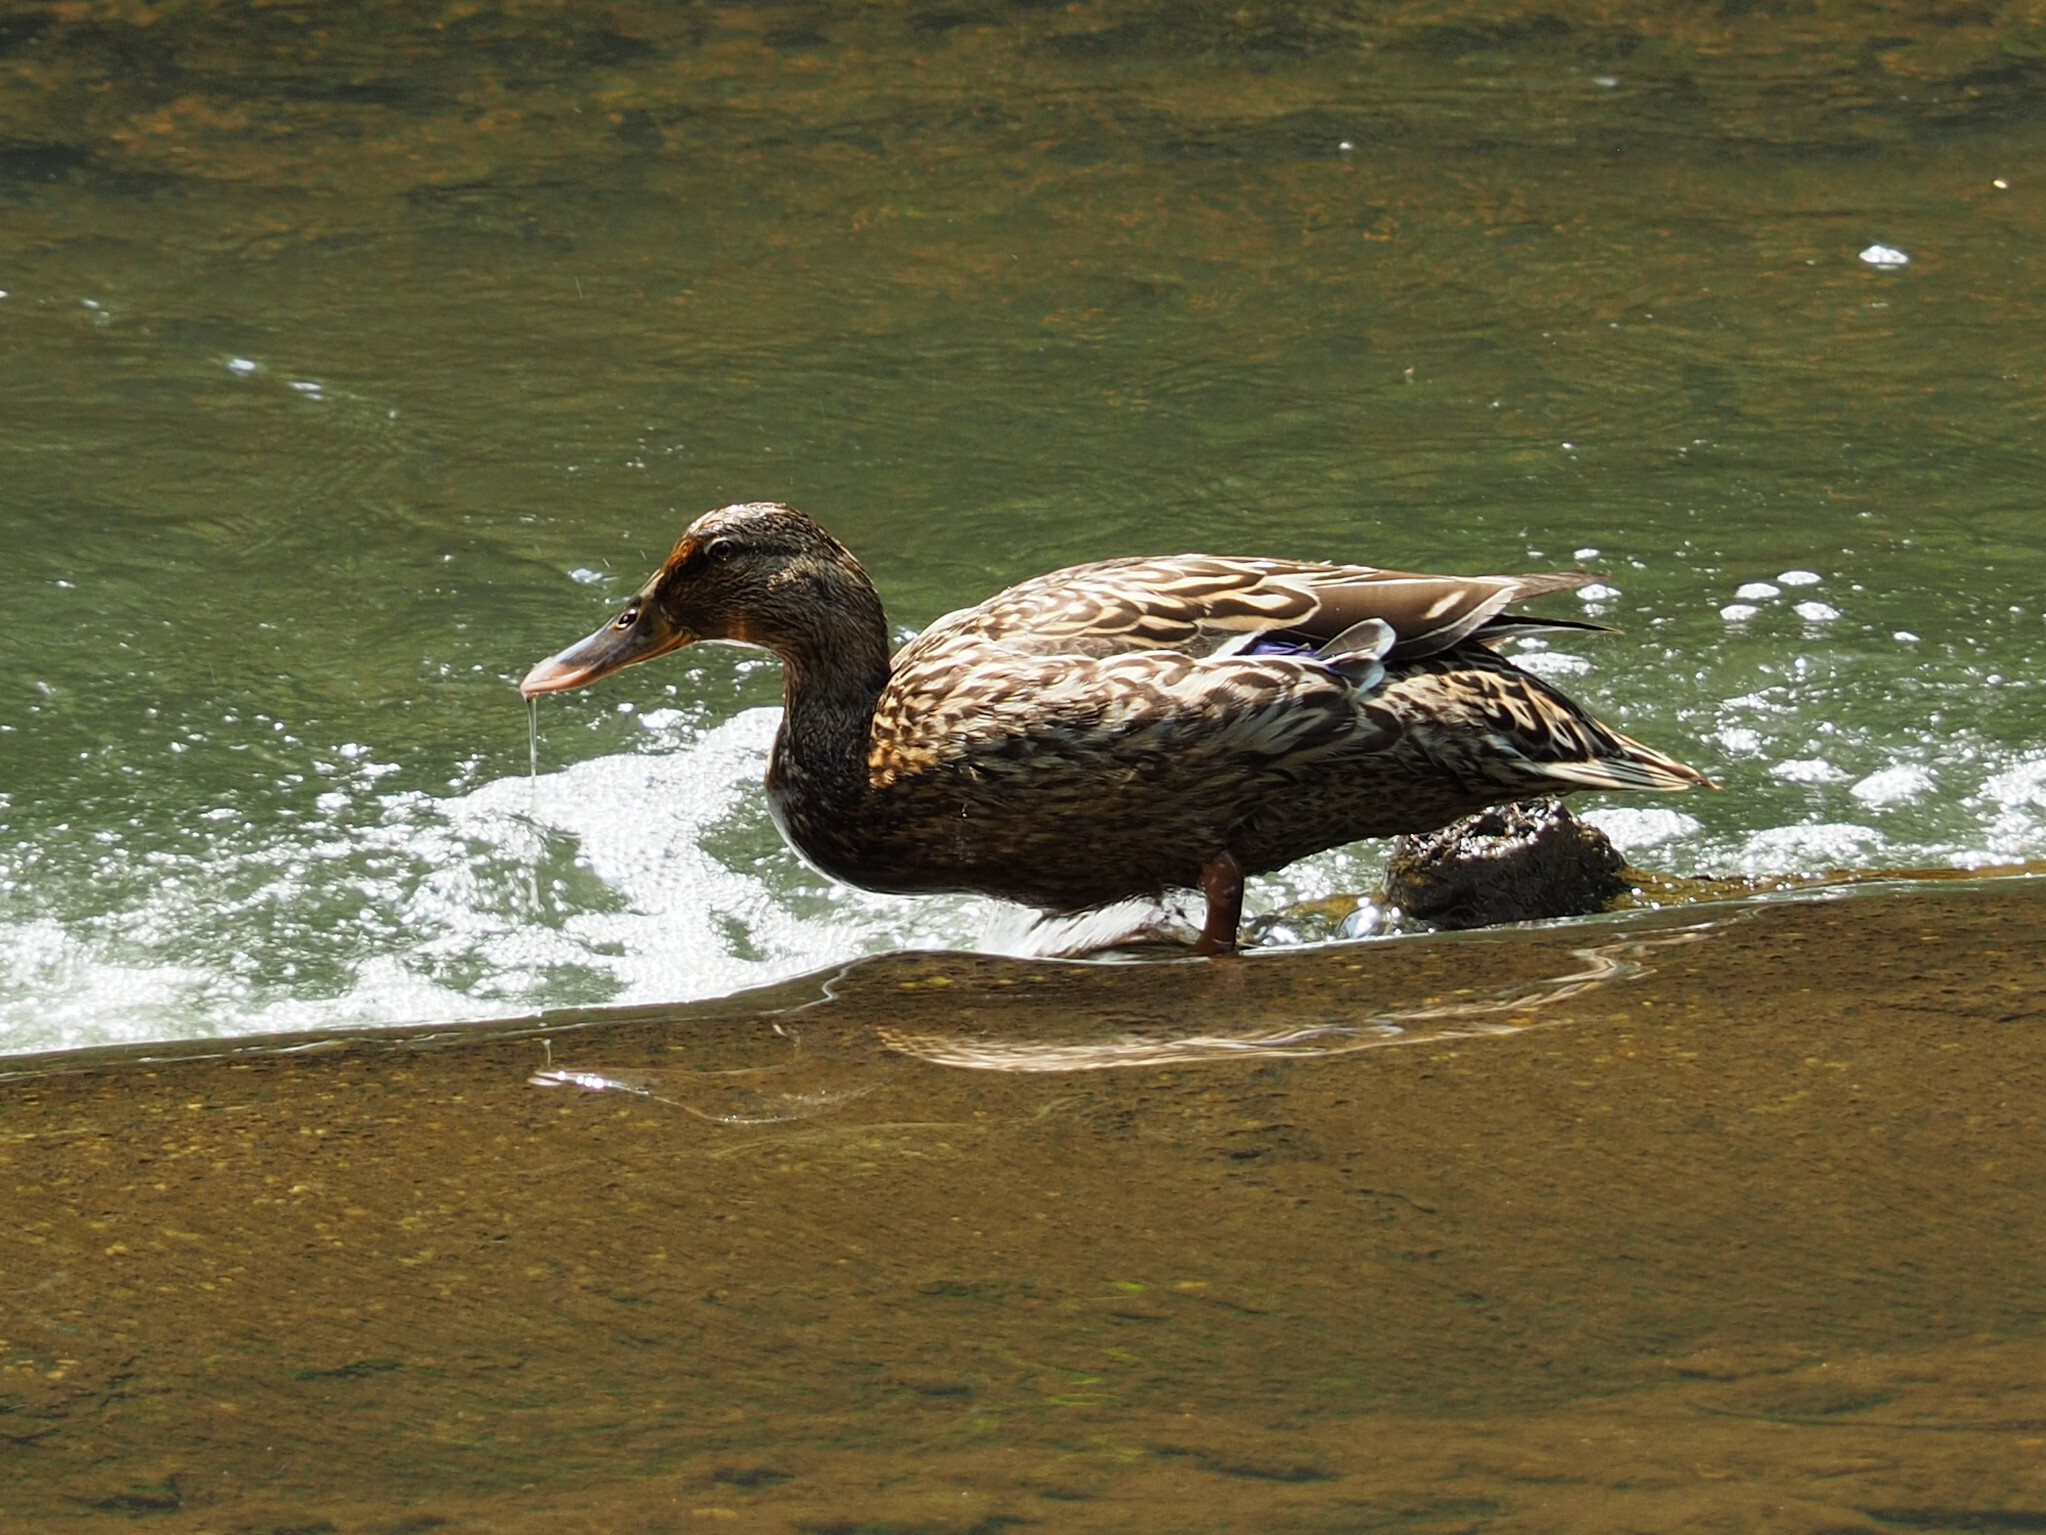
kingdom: Animalia
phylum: Chordata
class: Aves
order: Anseriformes
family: Anatidae
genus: Anas
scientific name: Anas platyrhynchos
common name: Mallard
